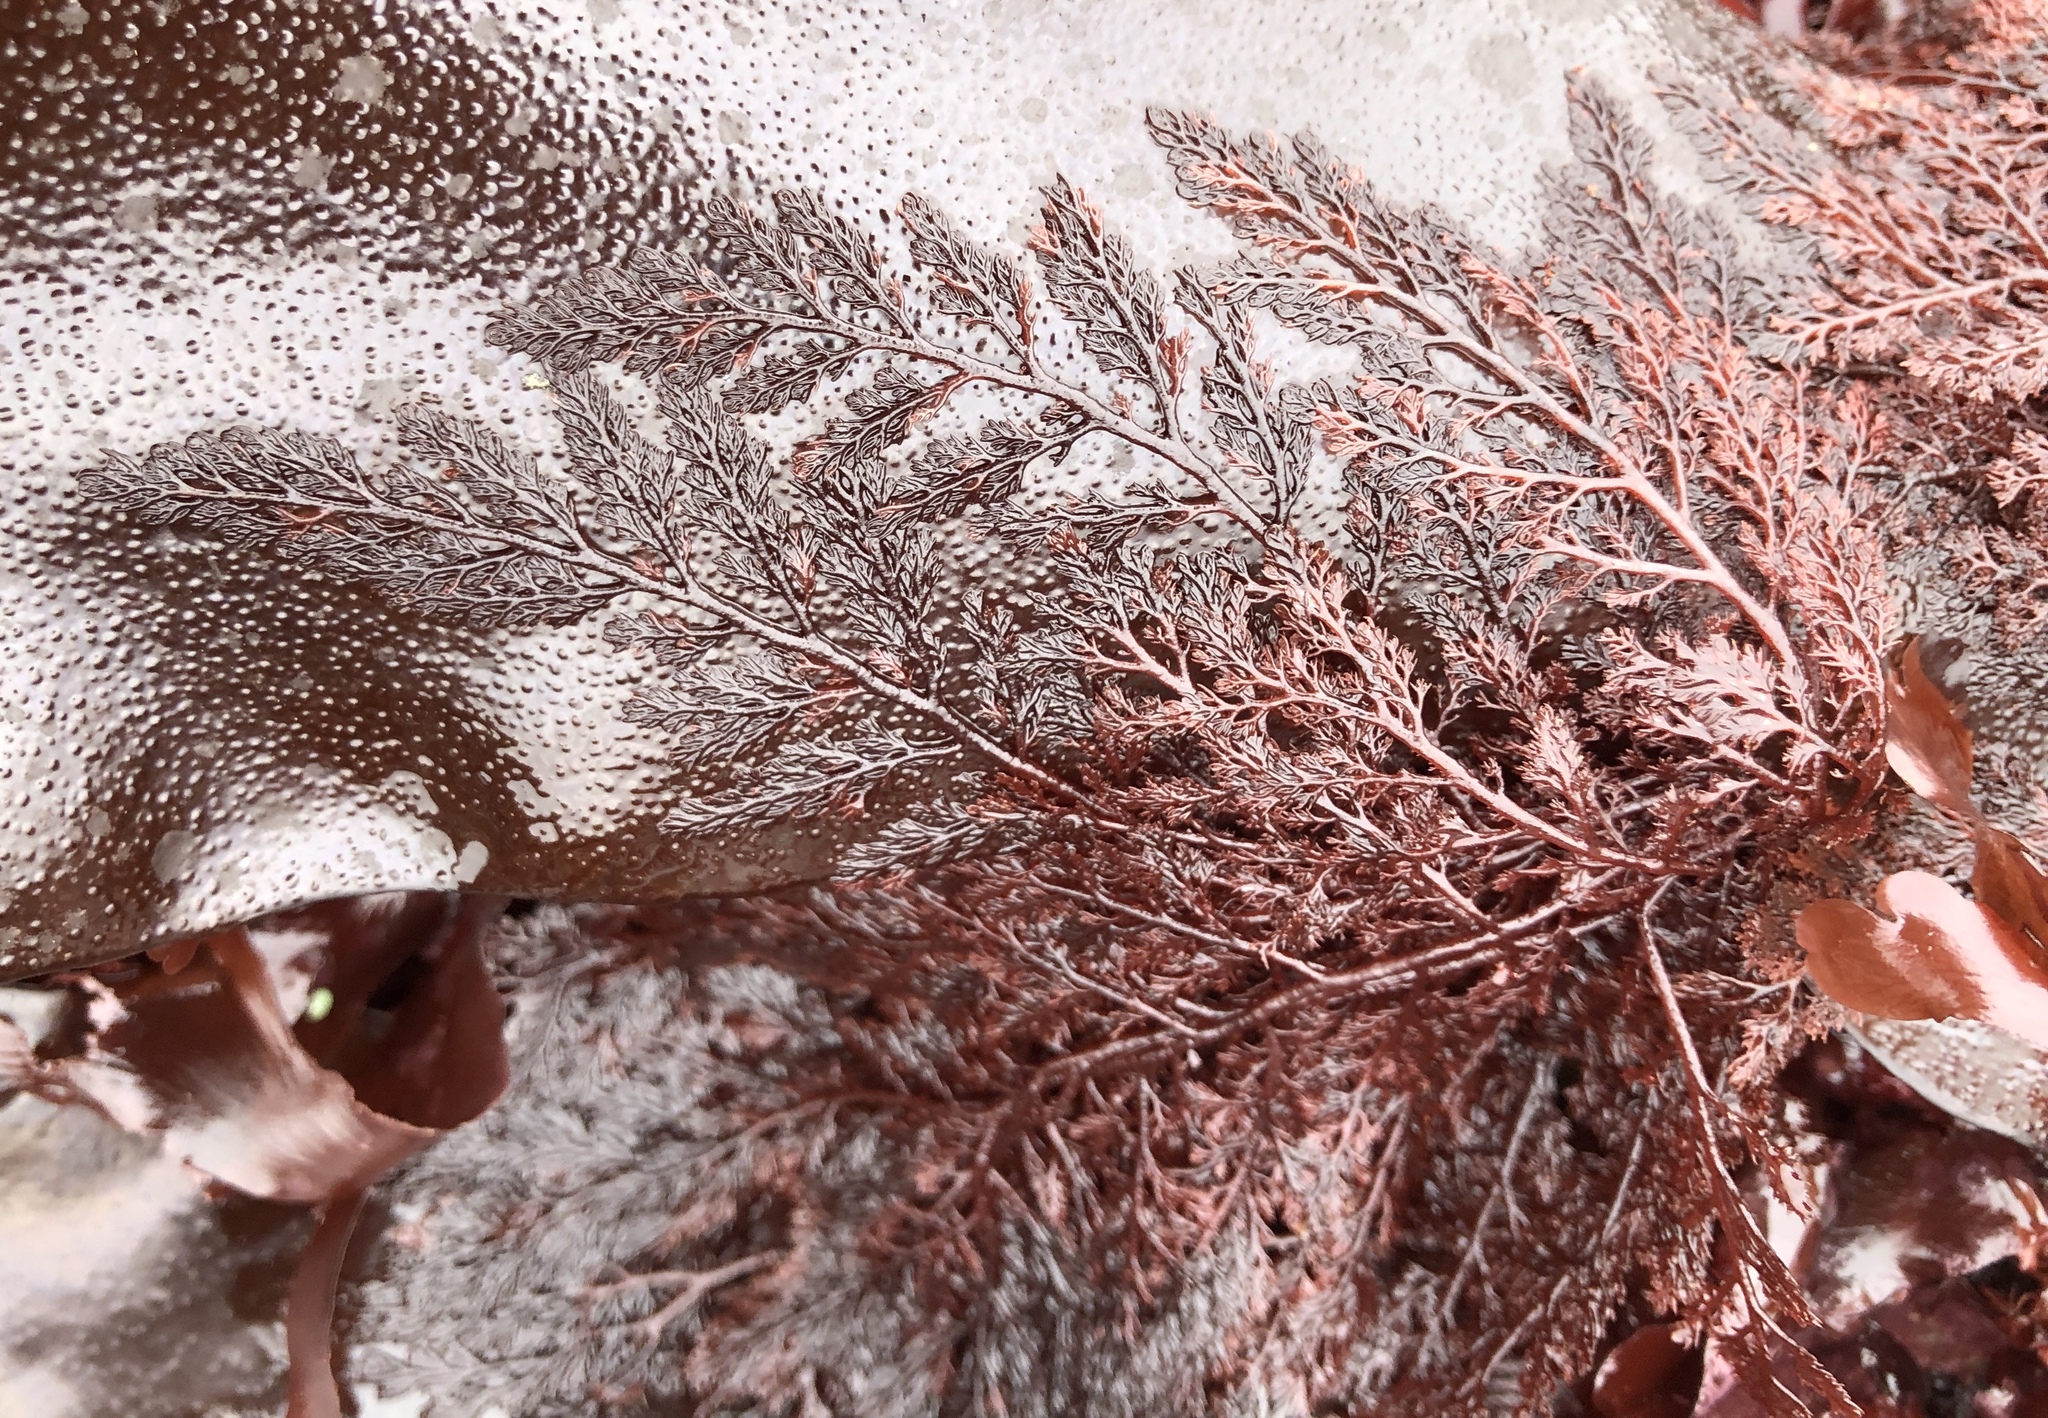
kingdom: Plantae
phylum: Rhodophyta
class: Florideophyceae
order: Ceramiales
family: Ceramiaceae
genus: Microcladia
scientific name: Microcladia coulteri
